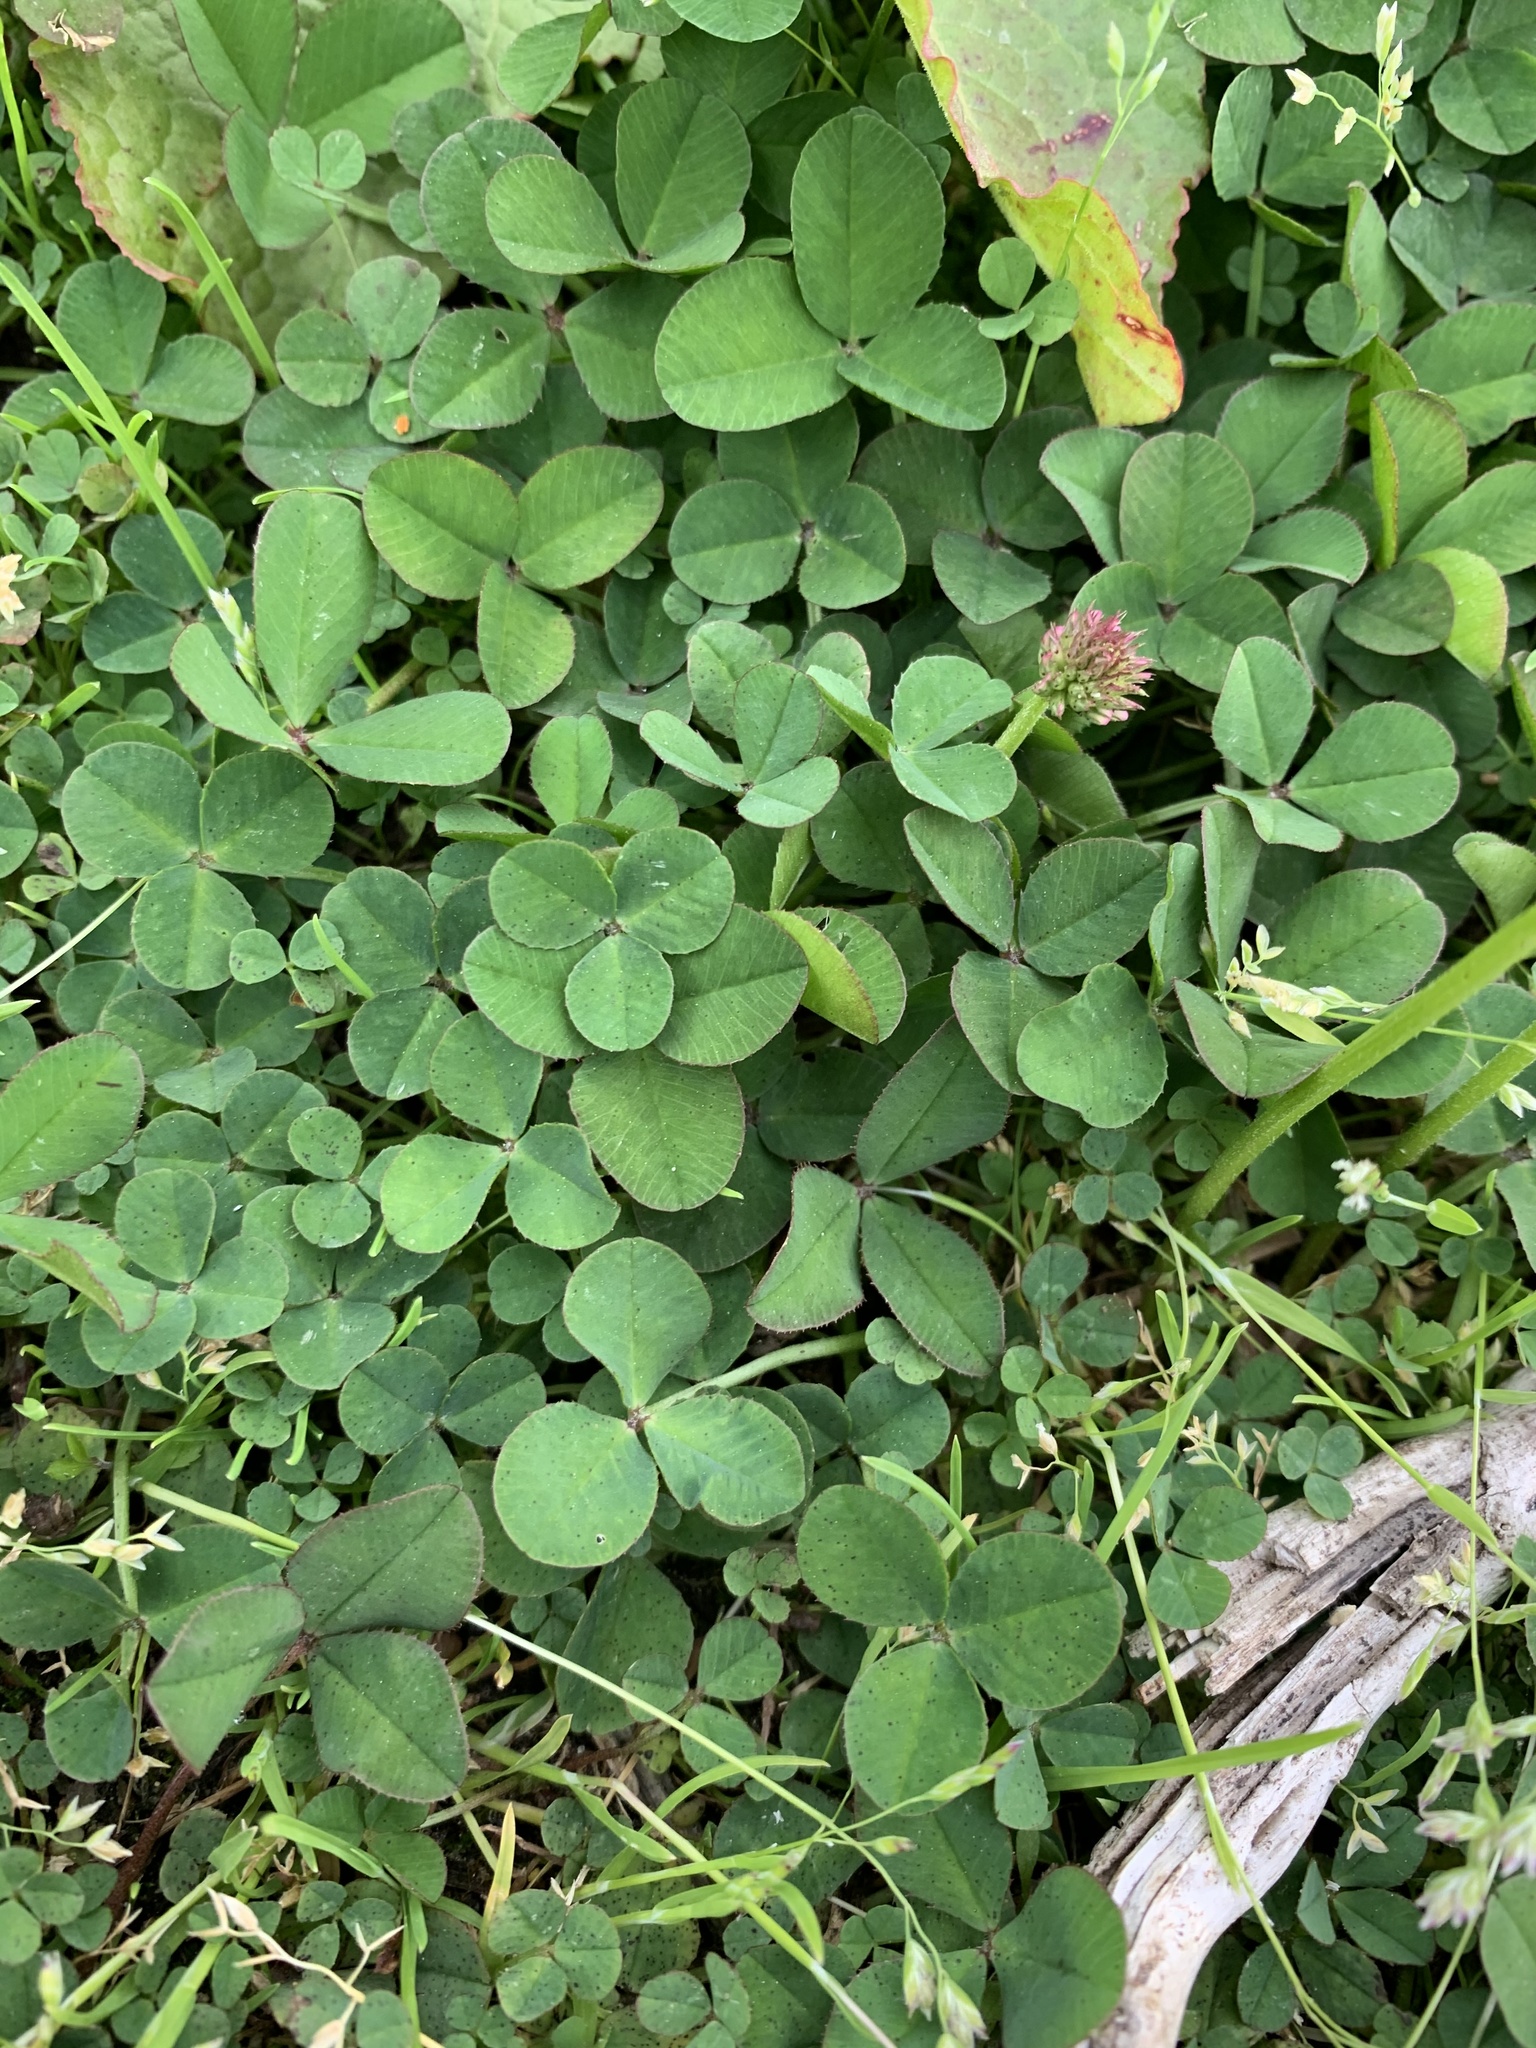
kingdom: Plantae
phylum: Tracheophyta
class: Magnoliopsida
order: Fabales
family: Fabaceae
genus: Trifolium
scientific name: Trifolium repens
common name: White clover
